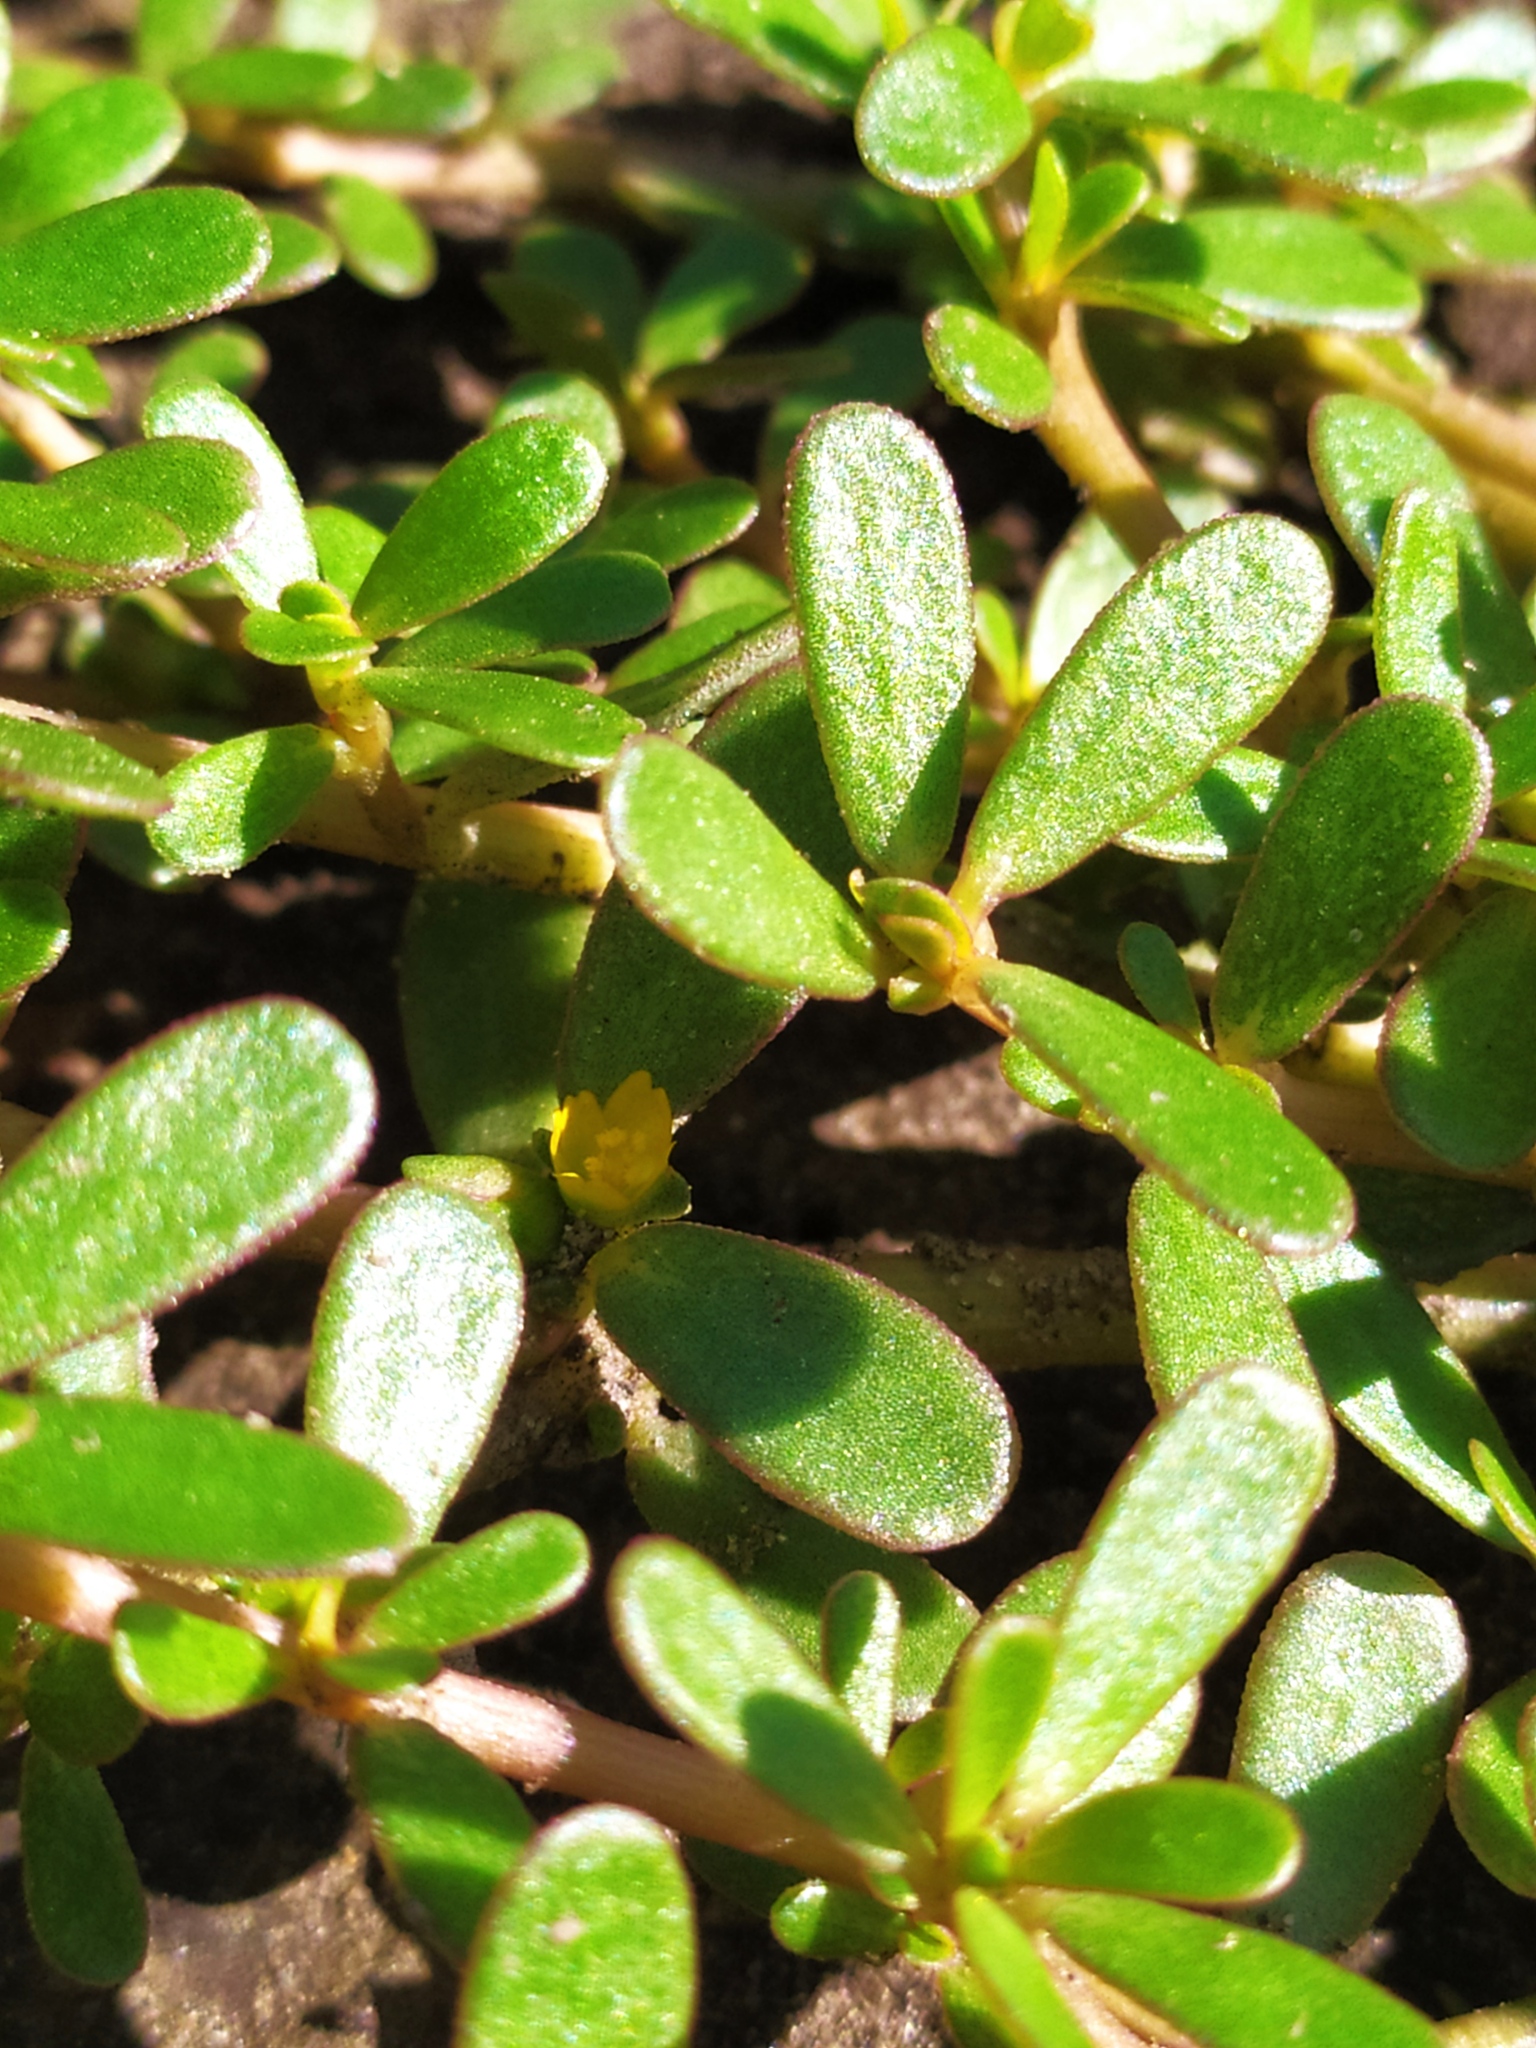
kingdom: Plantae
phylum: Tracheophyta
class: Magnoliopsida
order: Caryophyllales
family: Portulacaceae
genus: Portulaca
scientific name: Portulaca oleracea
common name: Common purslane
